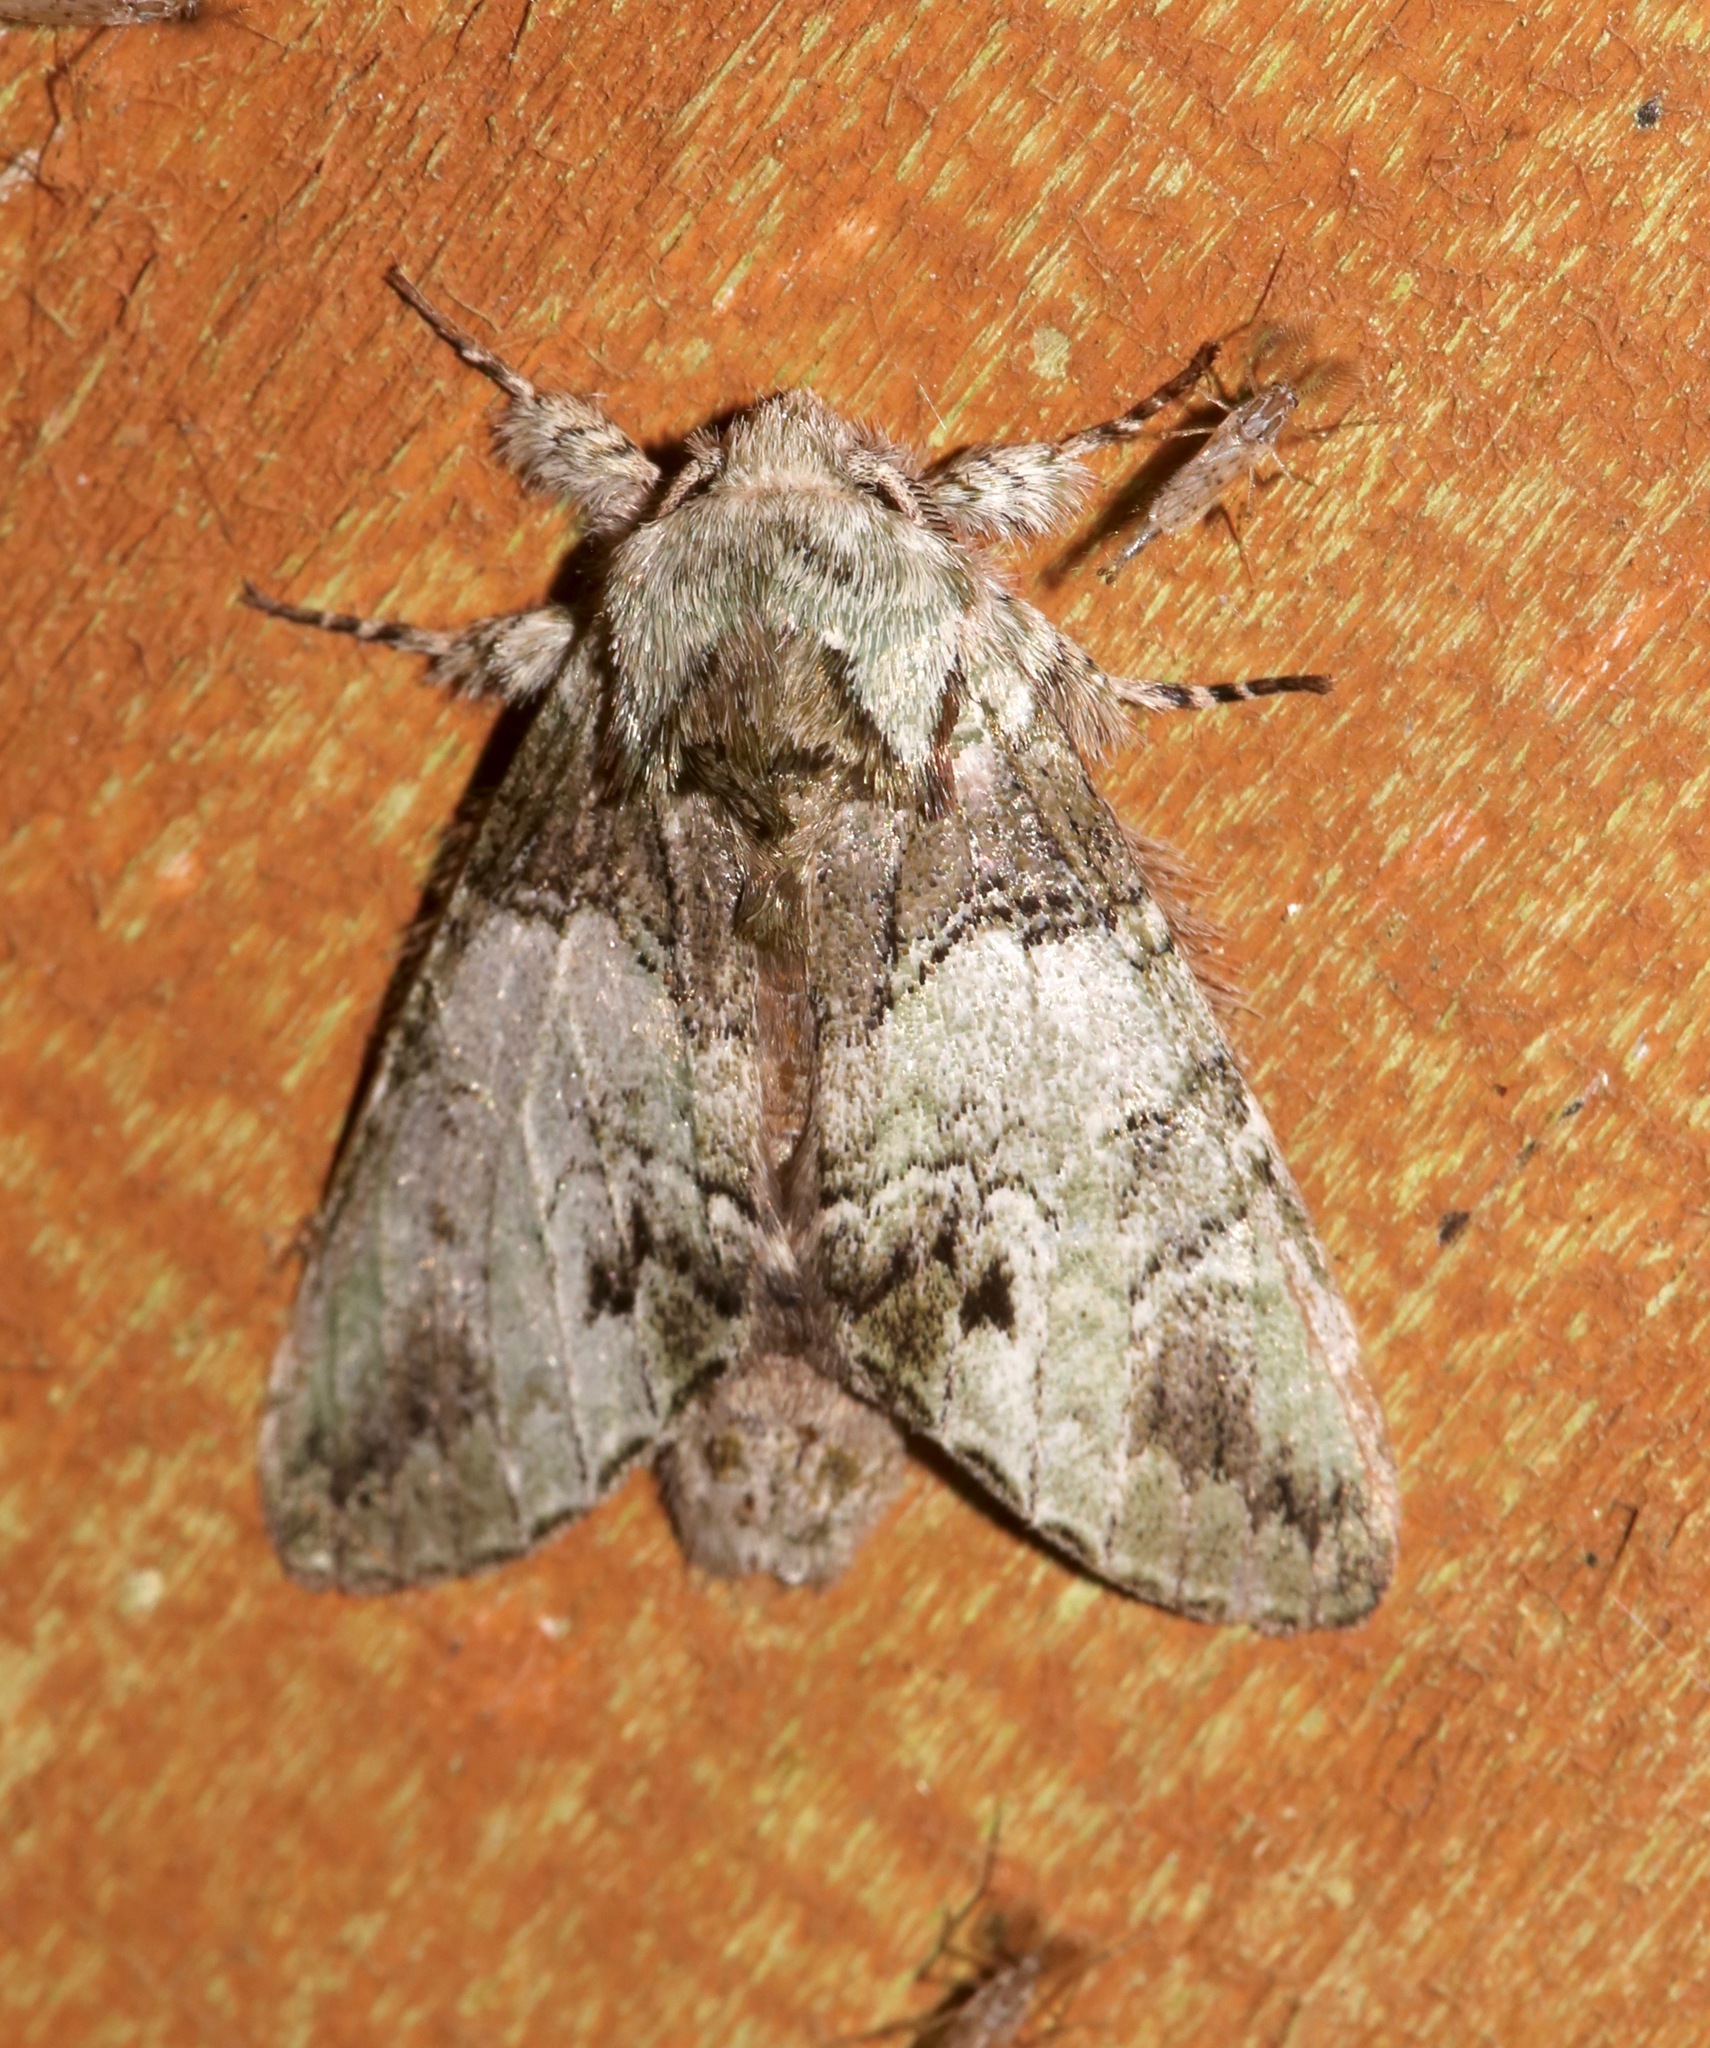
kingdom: Animalia
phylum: Arthropoda
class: Insecta
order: Lepidoptera
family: Notodontidae
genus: Macrurocampa
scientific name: Macrurocampa marthesia
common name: Mottled prominent
